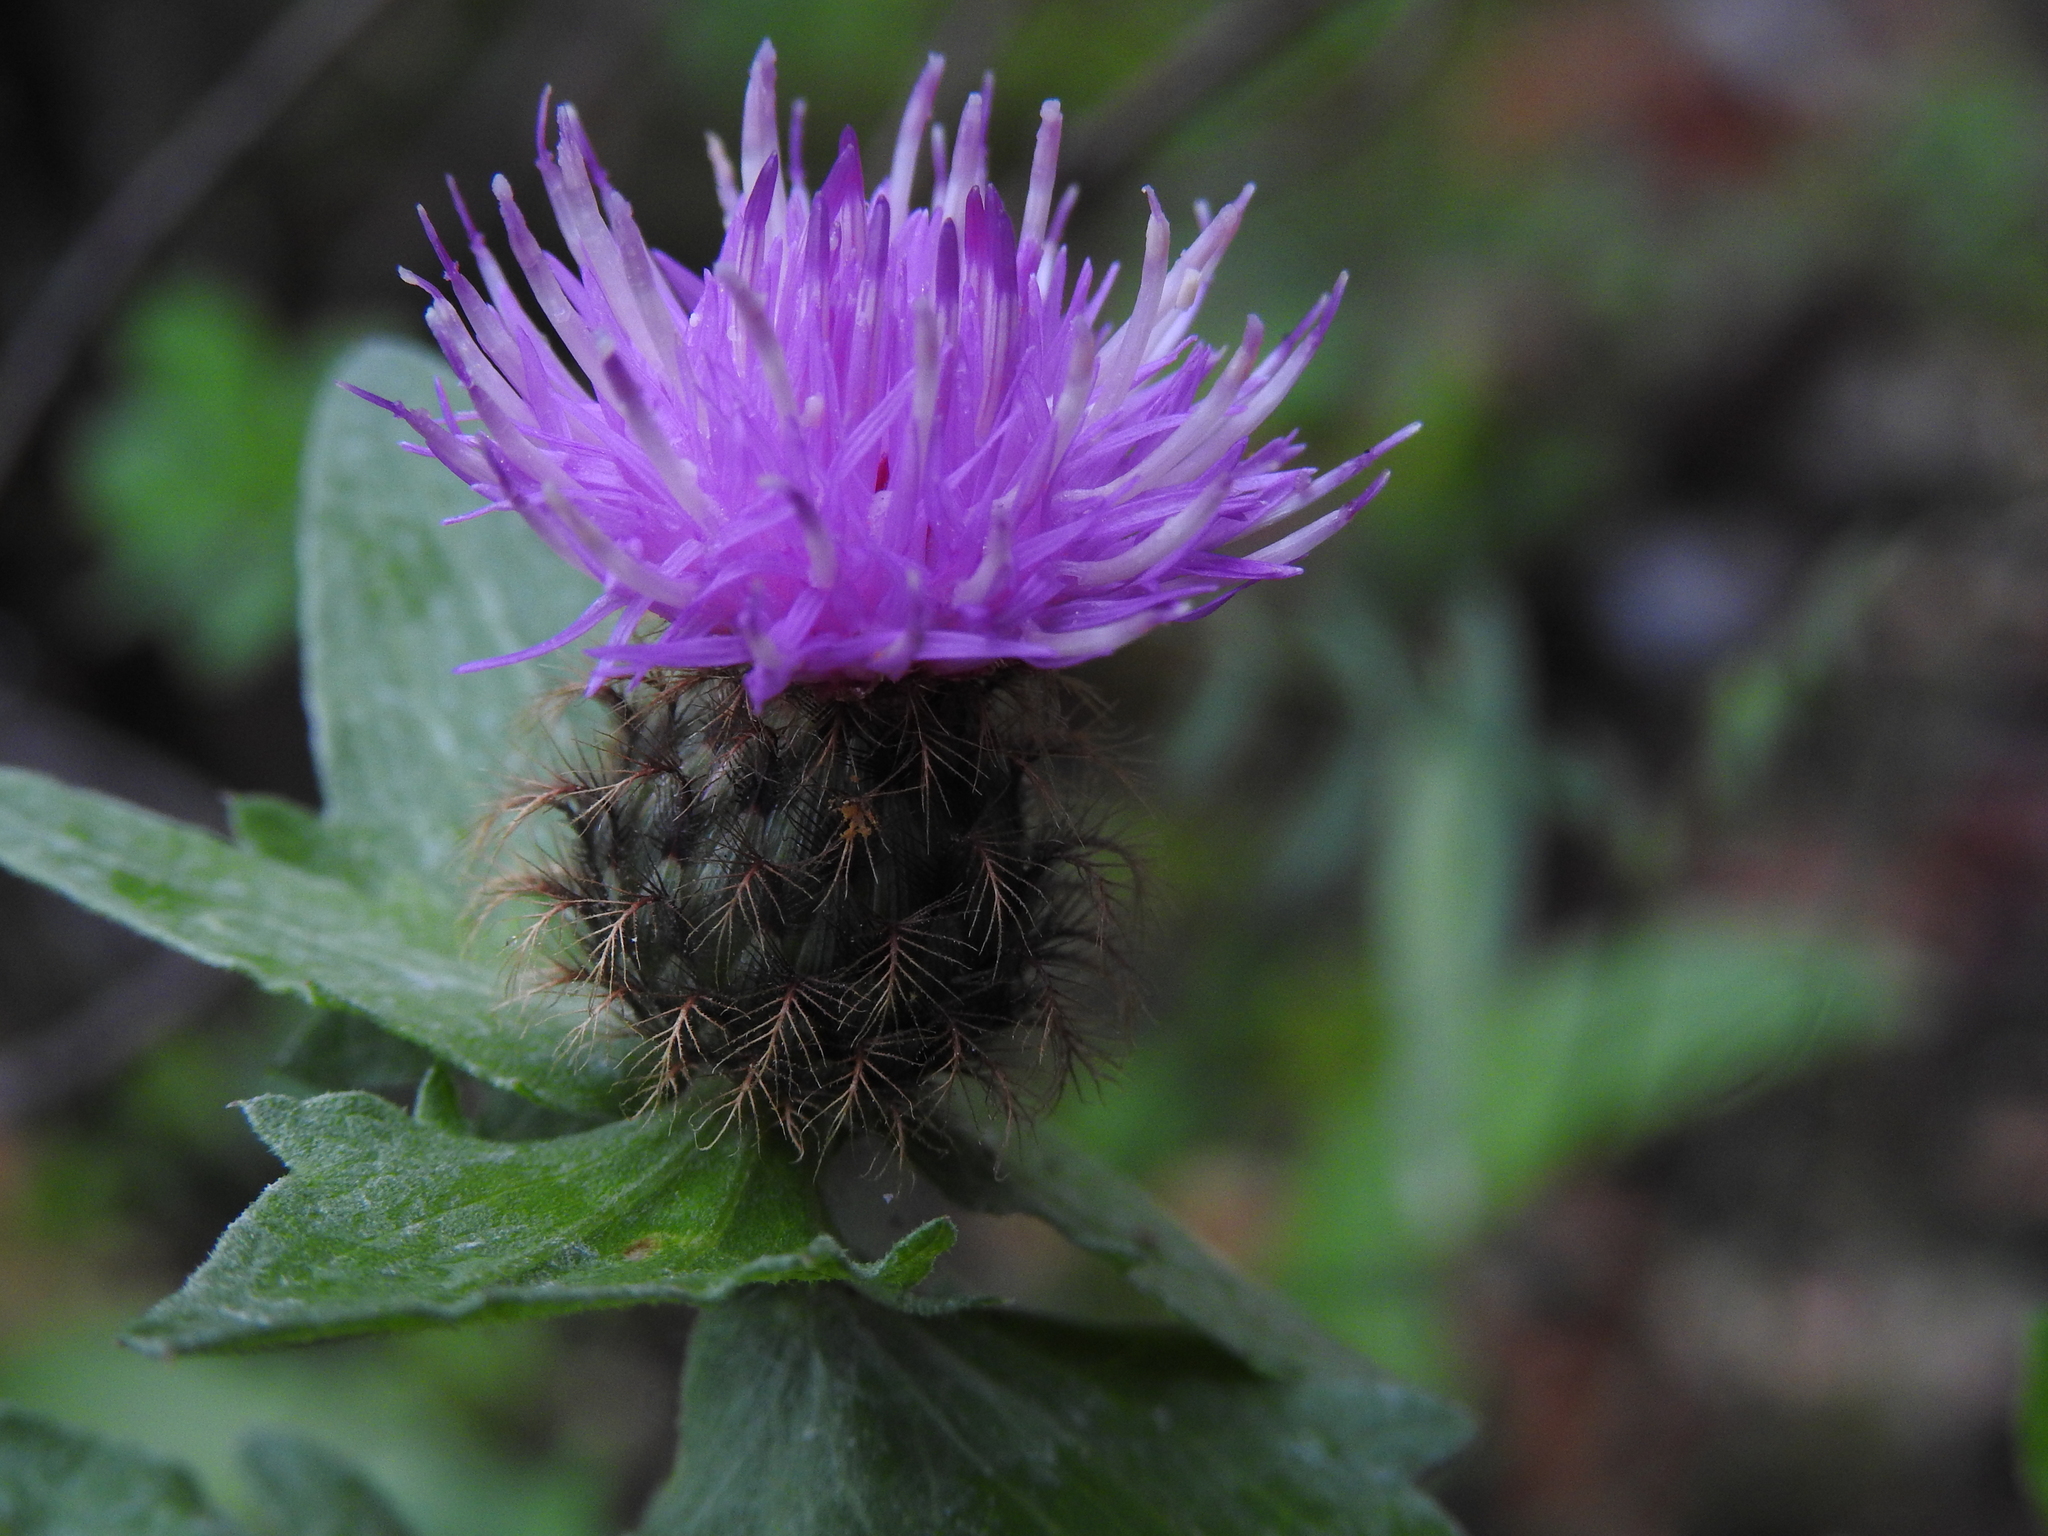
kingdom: Plantae
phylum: Tracheophyta
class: Magnoliopsida
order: Asterales
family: Asteraceae
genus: Centaurea
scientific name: Centaurea pectinata
